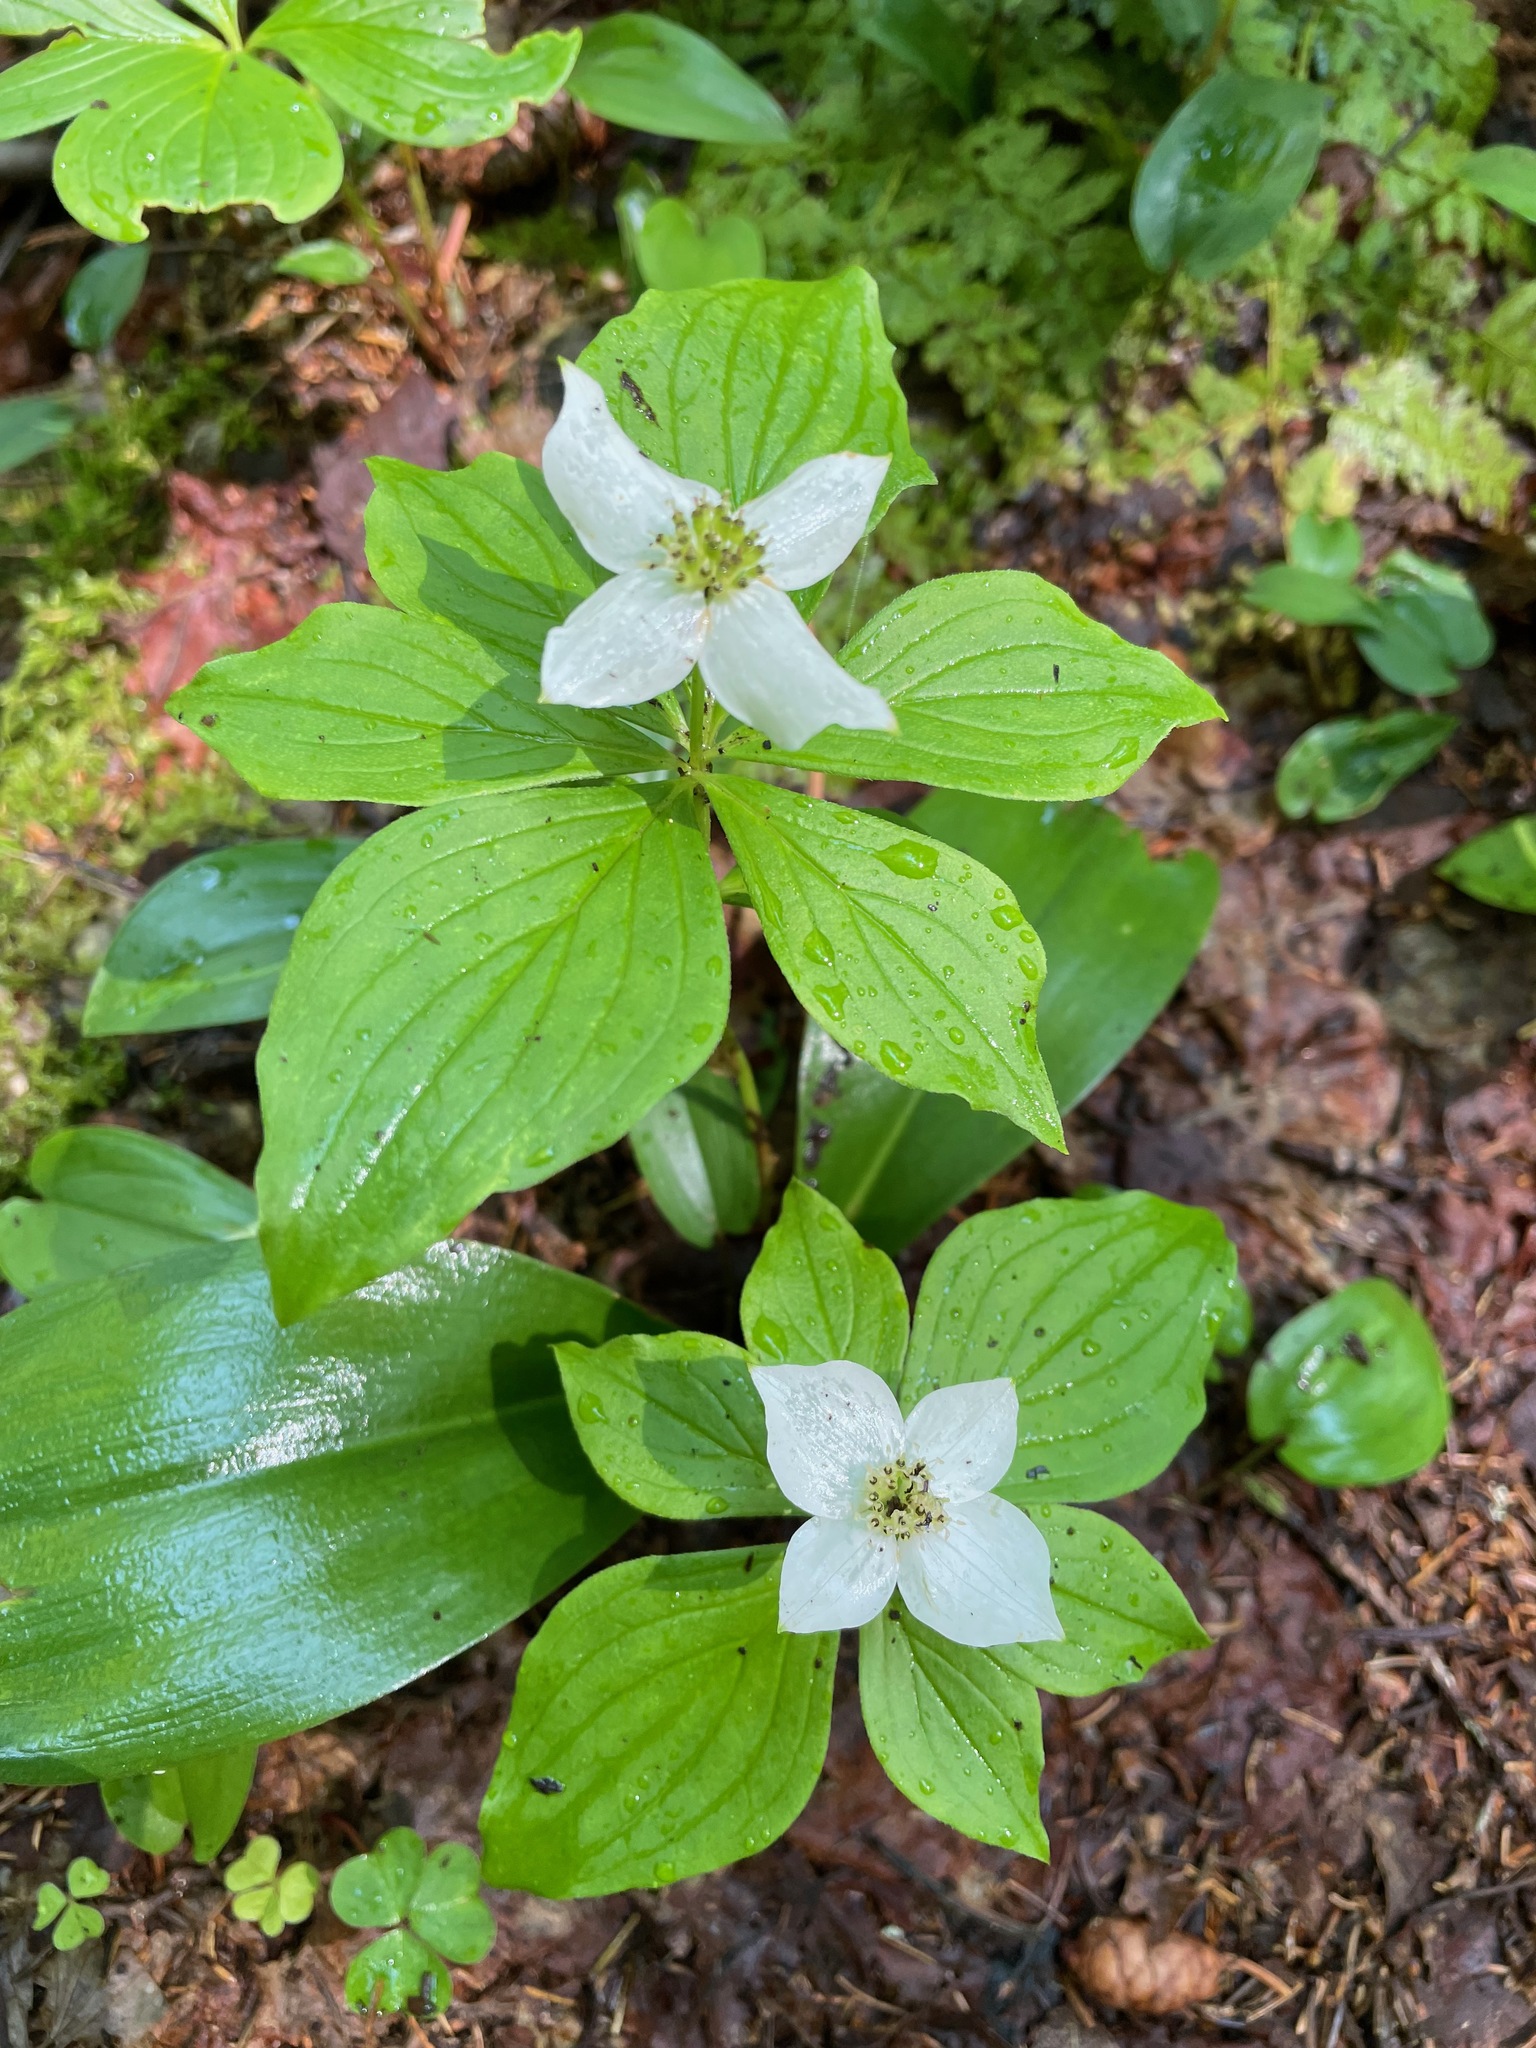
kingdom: Plantae
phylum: Tracheophyta
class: Magnoliopsida
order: Cornales
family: Cornaceae
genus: Cornus
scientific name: Cornus canadensis
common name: Creeping dogwood
